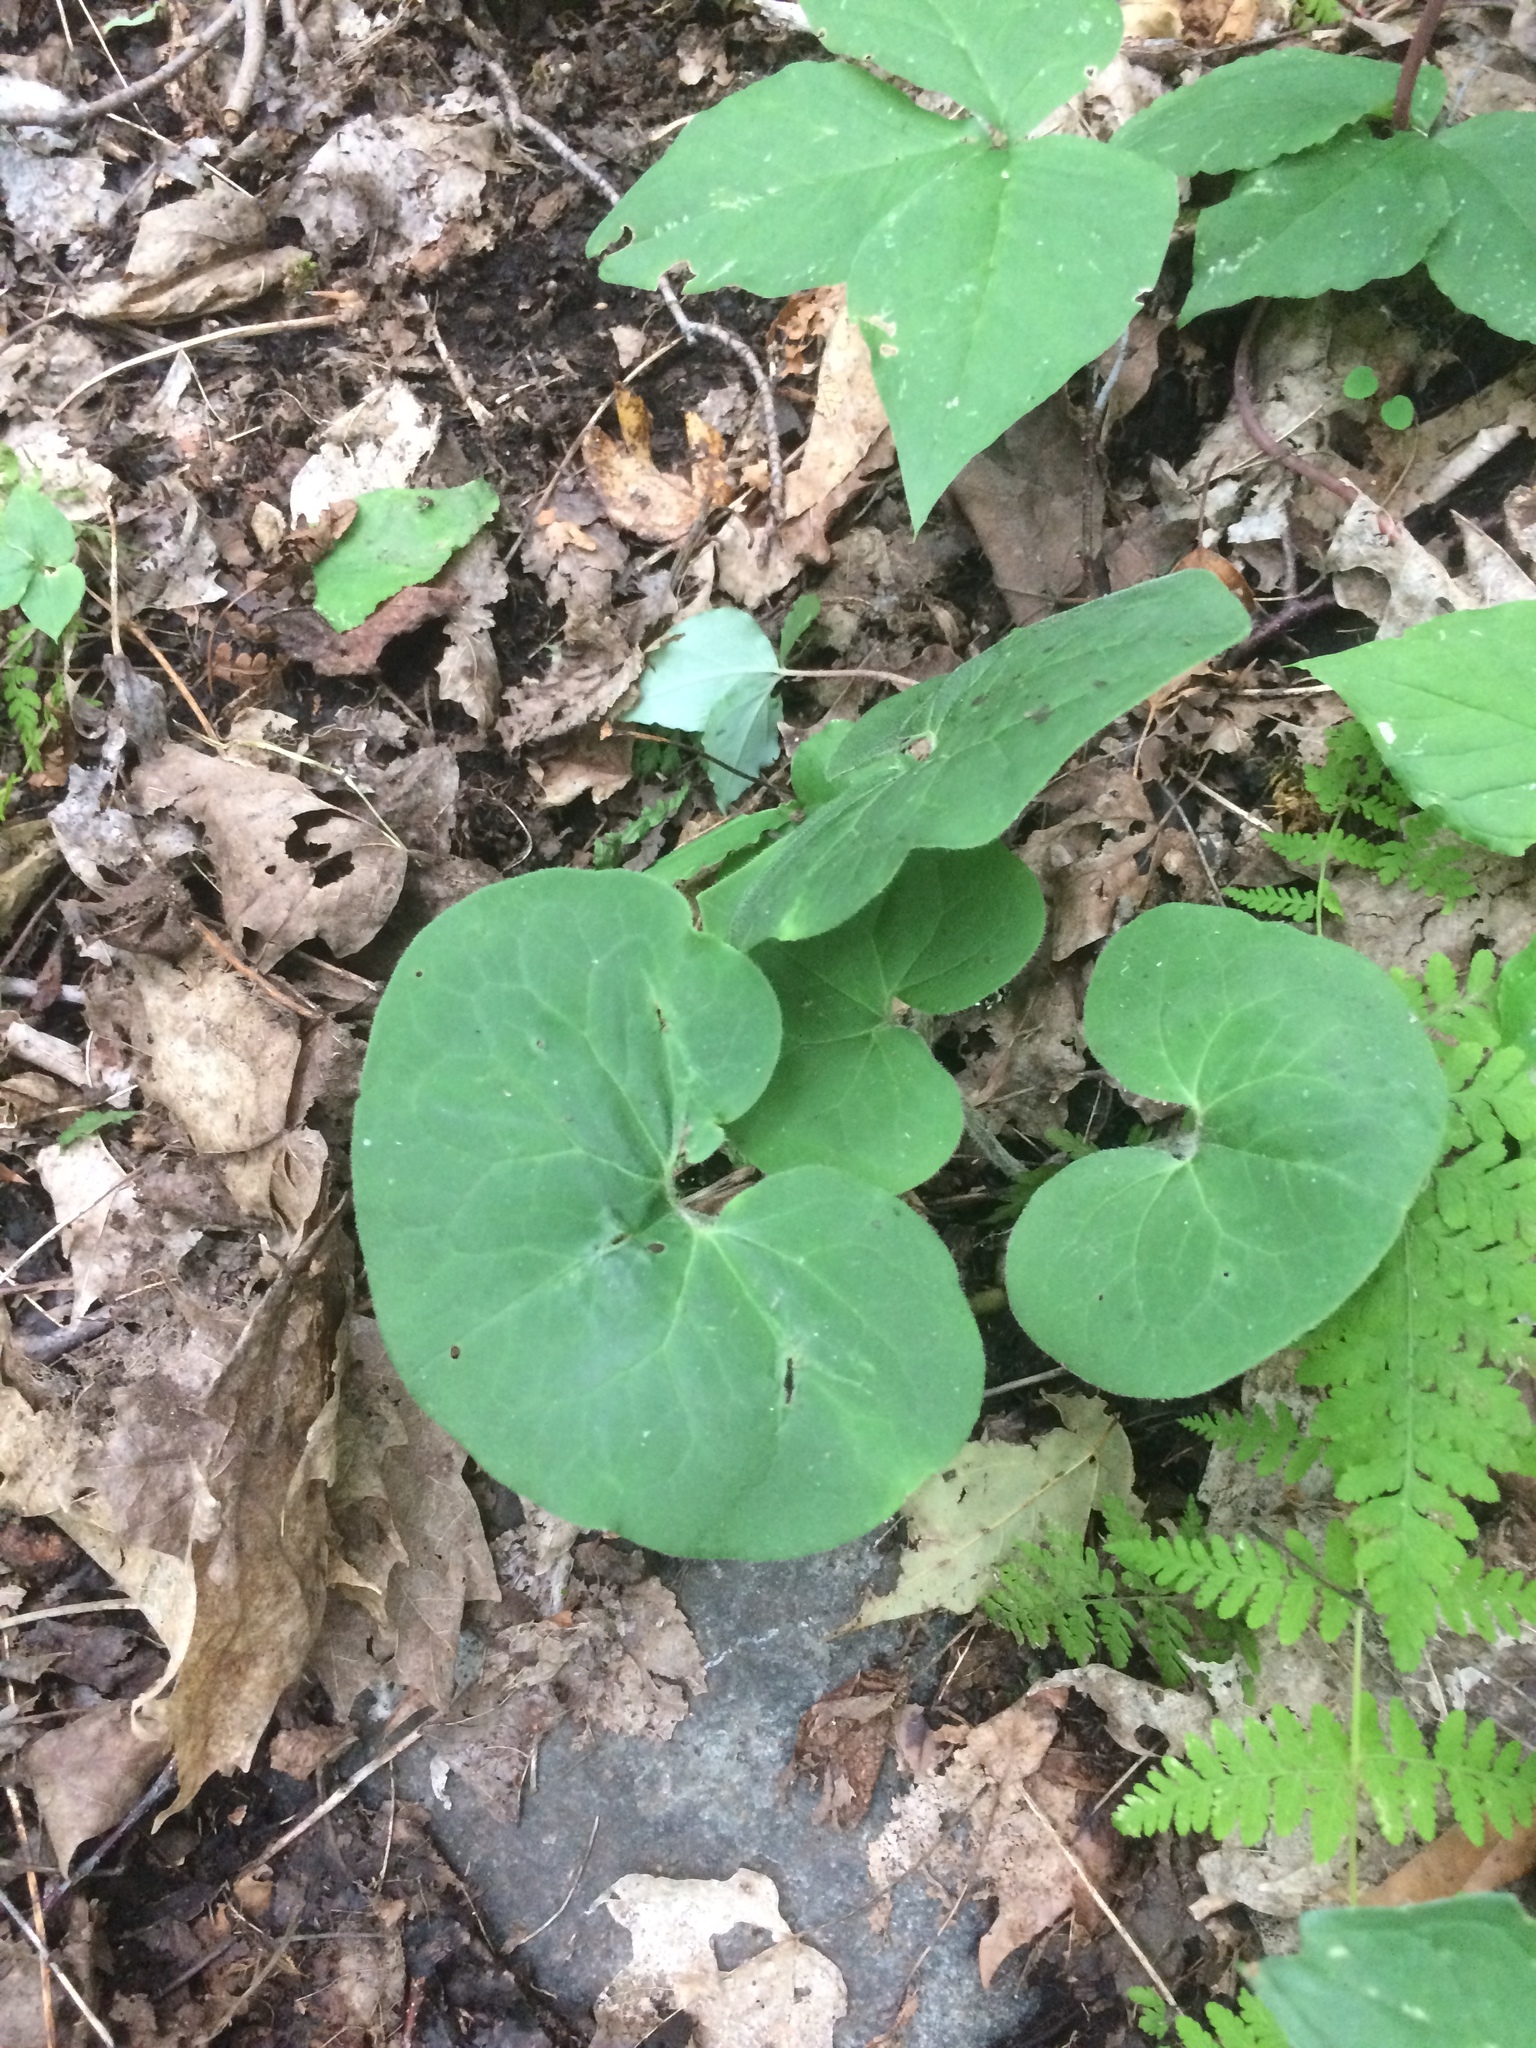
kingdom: Plantae
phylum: Tracheophyta
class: Magnoliopsida
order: Piperales
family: Aristolochiaceae
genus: Asarum
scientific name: Asarum canadense
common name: Wild ginger
